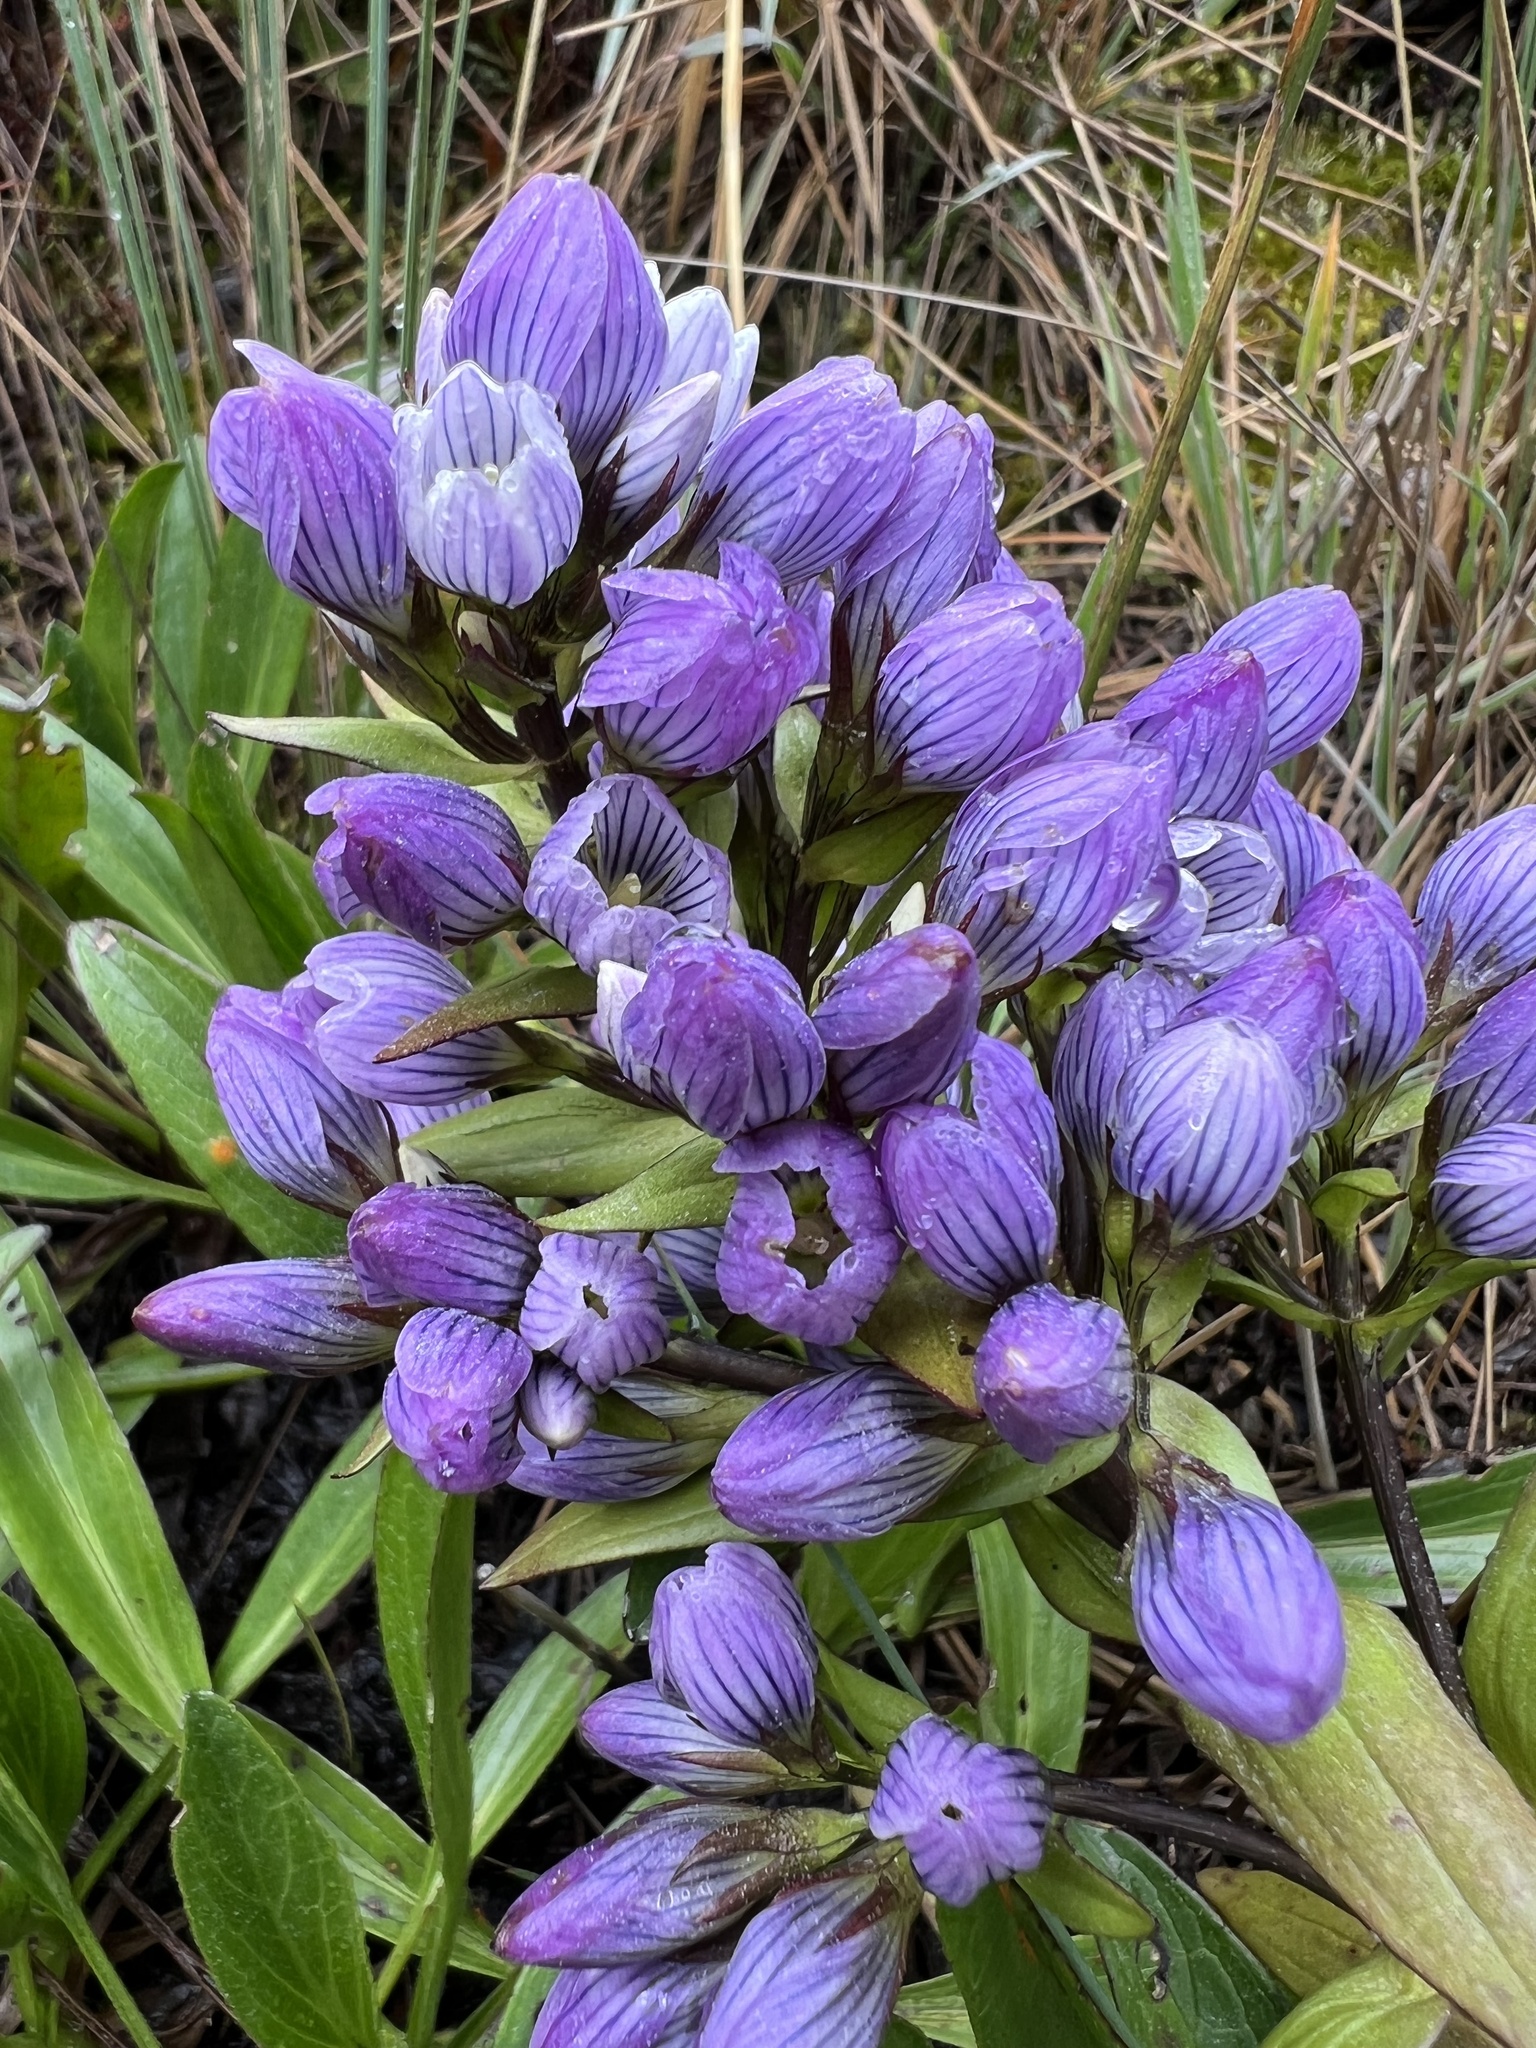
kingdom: Plantae
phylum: Tracheophyta
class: Magnoliopsida
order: Gentianales
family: Gentianaceae
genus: Gentianella
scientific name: Gentianella selaginifolia
